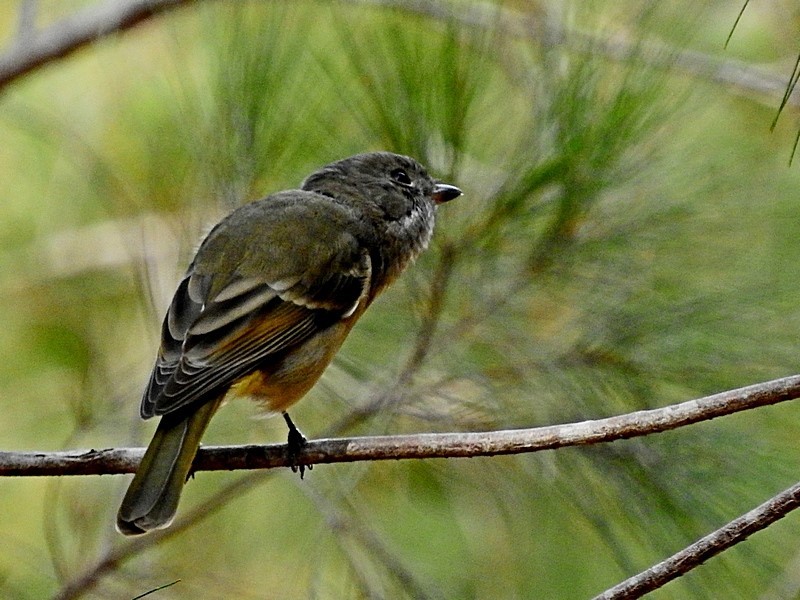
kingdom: Animalia
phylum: Chordata
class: Aves
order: Passeriformes
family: Pachycephalidae
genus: Pachycephala
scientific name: Pachycephala pectoralis
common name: Australian golden whistler
